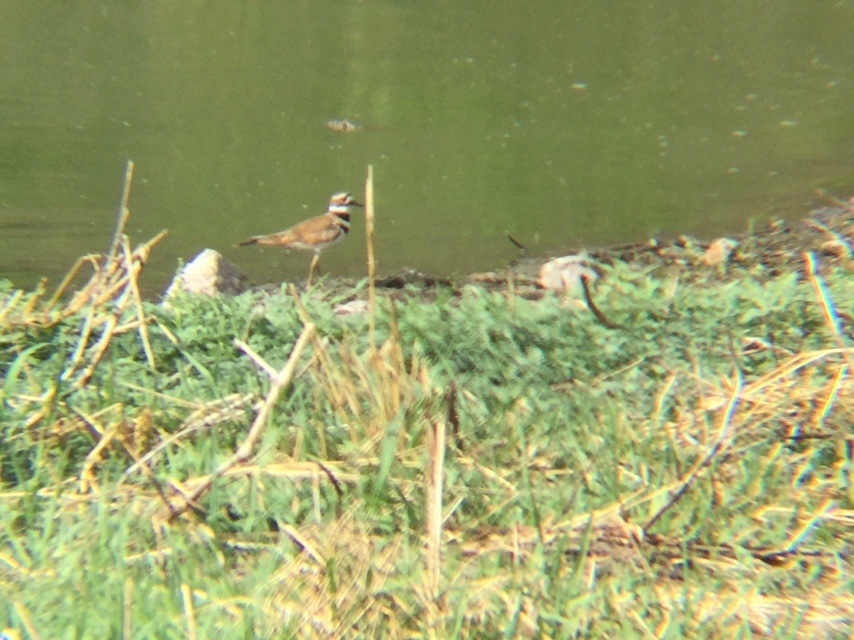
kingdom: Animalia
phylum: Chordata
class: Aves
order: Charadriiformes
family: Charadriidae
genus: Charadrius
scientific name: Charadrius vociferus
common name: Killdeer
